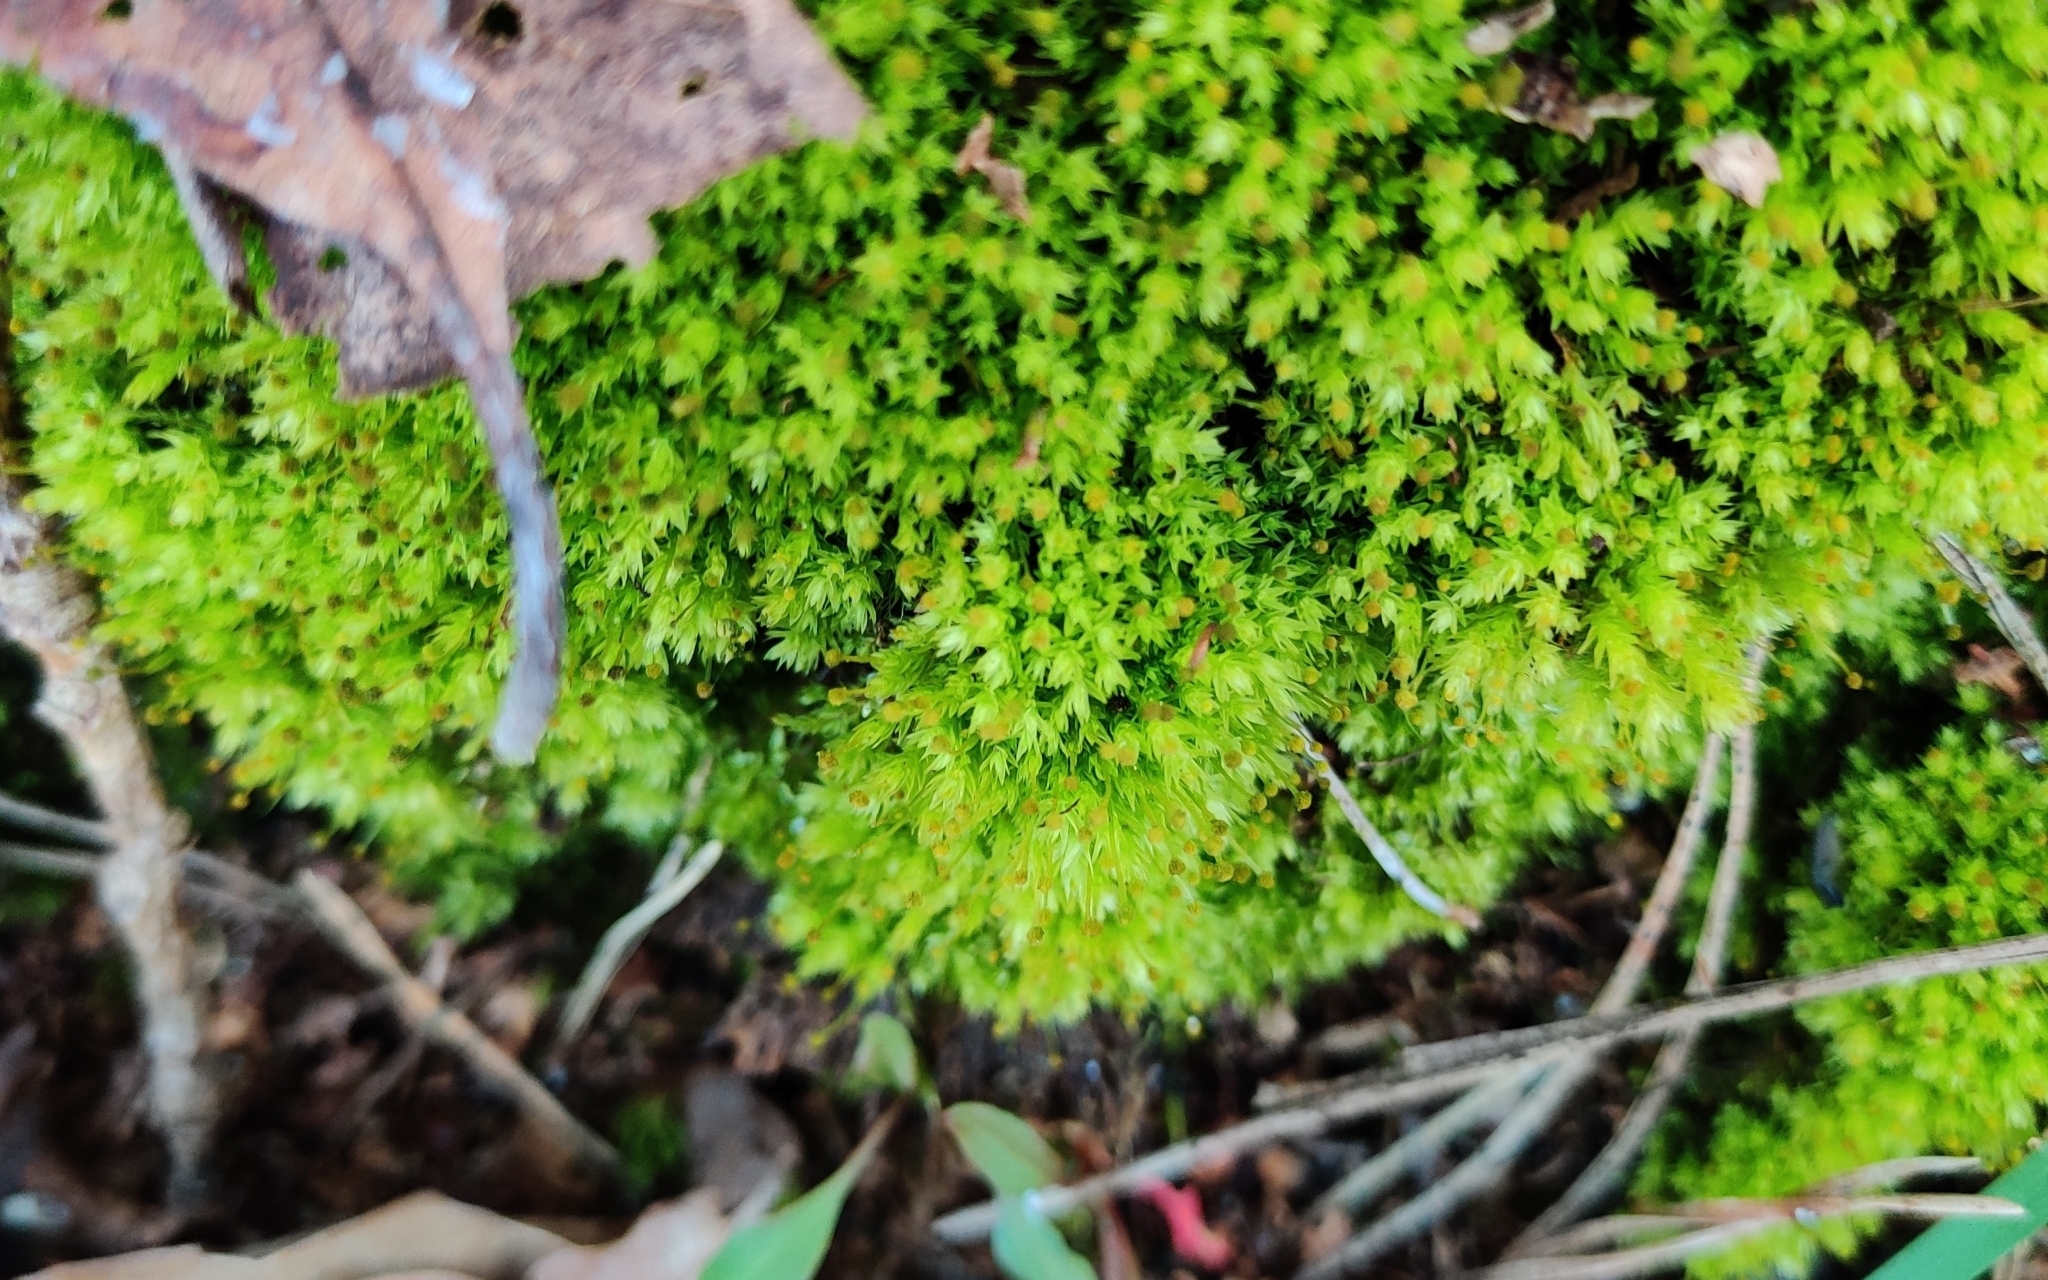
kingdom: Plantae
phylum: Bryophyta
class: Bryopsida
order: Aulacomniales
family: Aulacomniaceae
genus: Aulacomnium
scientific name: Aulacomnium androgynum
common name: Little groove moss
